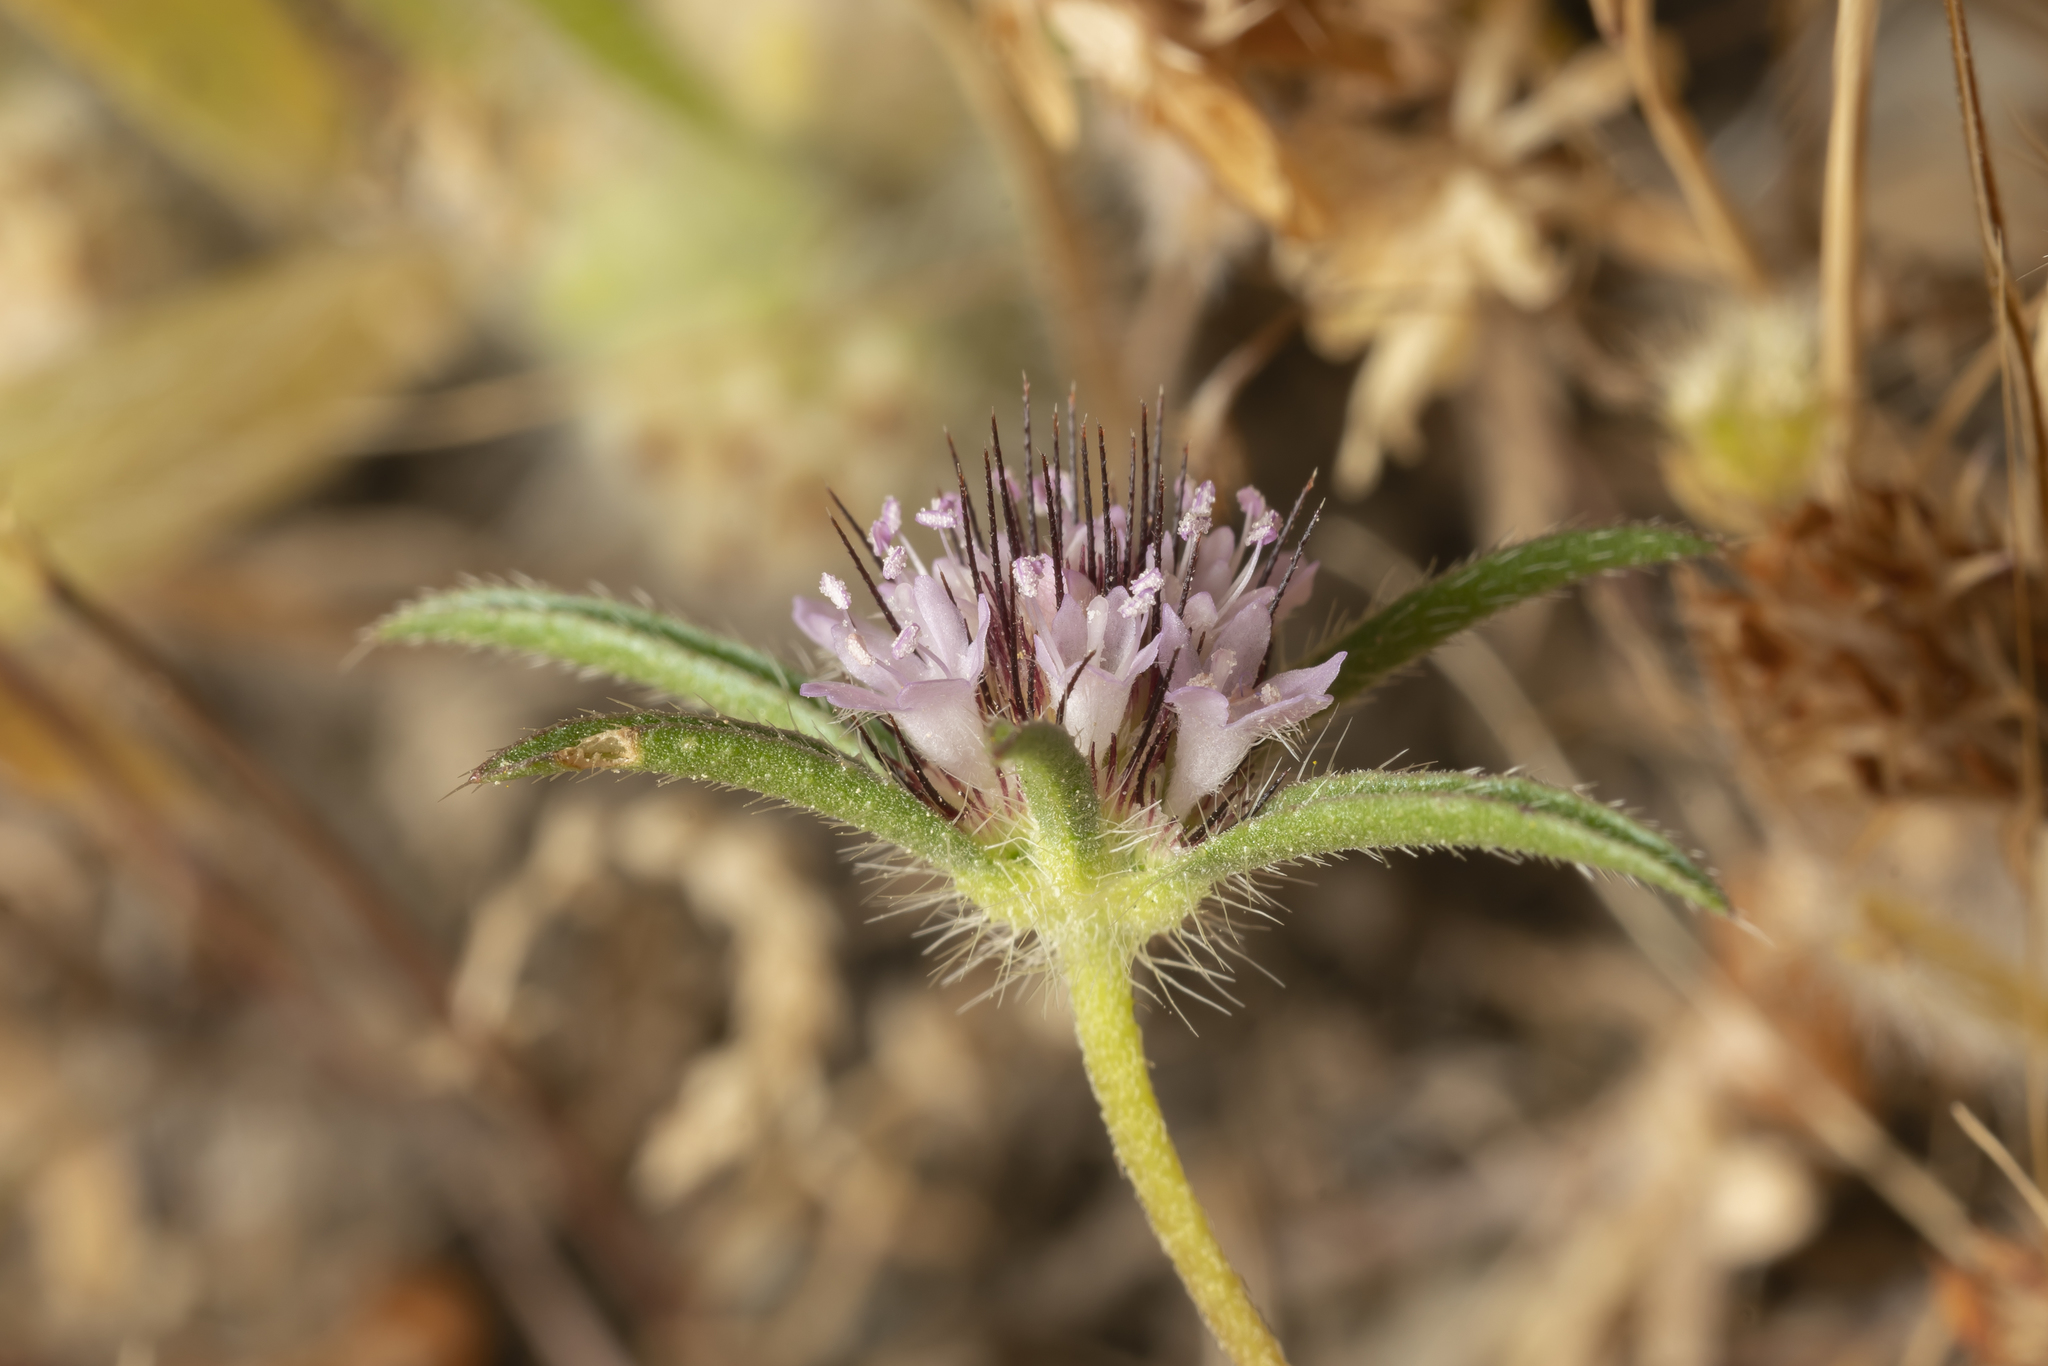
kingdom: Plantae
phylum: Tracheophyta
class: Magnoliopsida
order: Dipsacales
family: Caprifoliaceae
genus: Lomelosia
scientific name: Lomelosia divaricata
